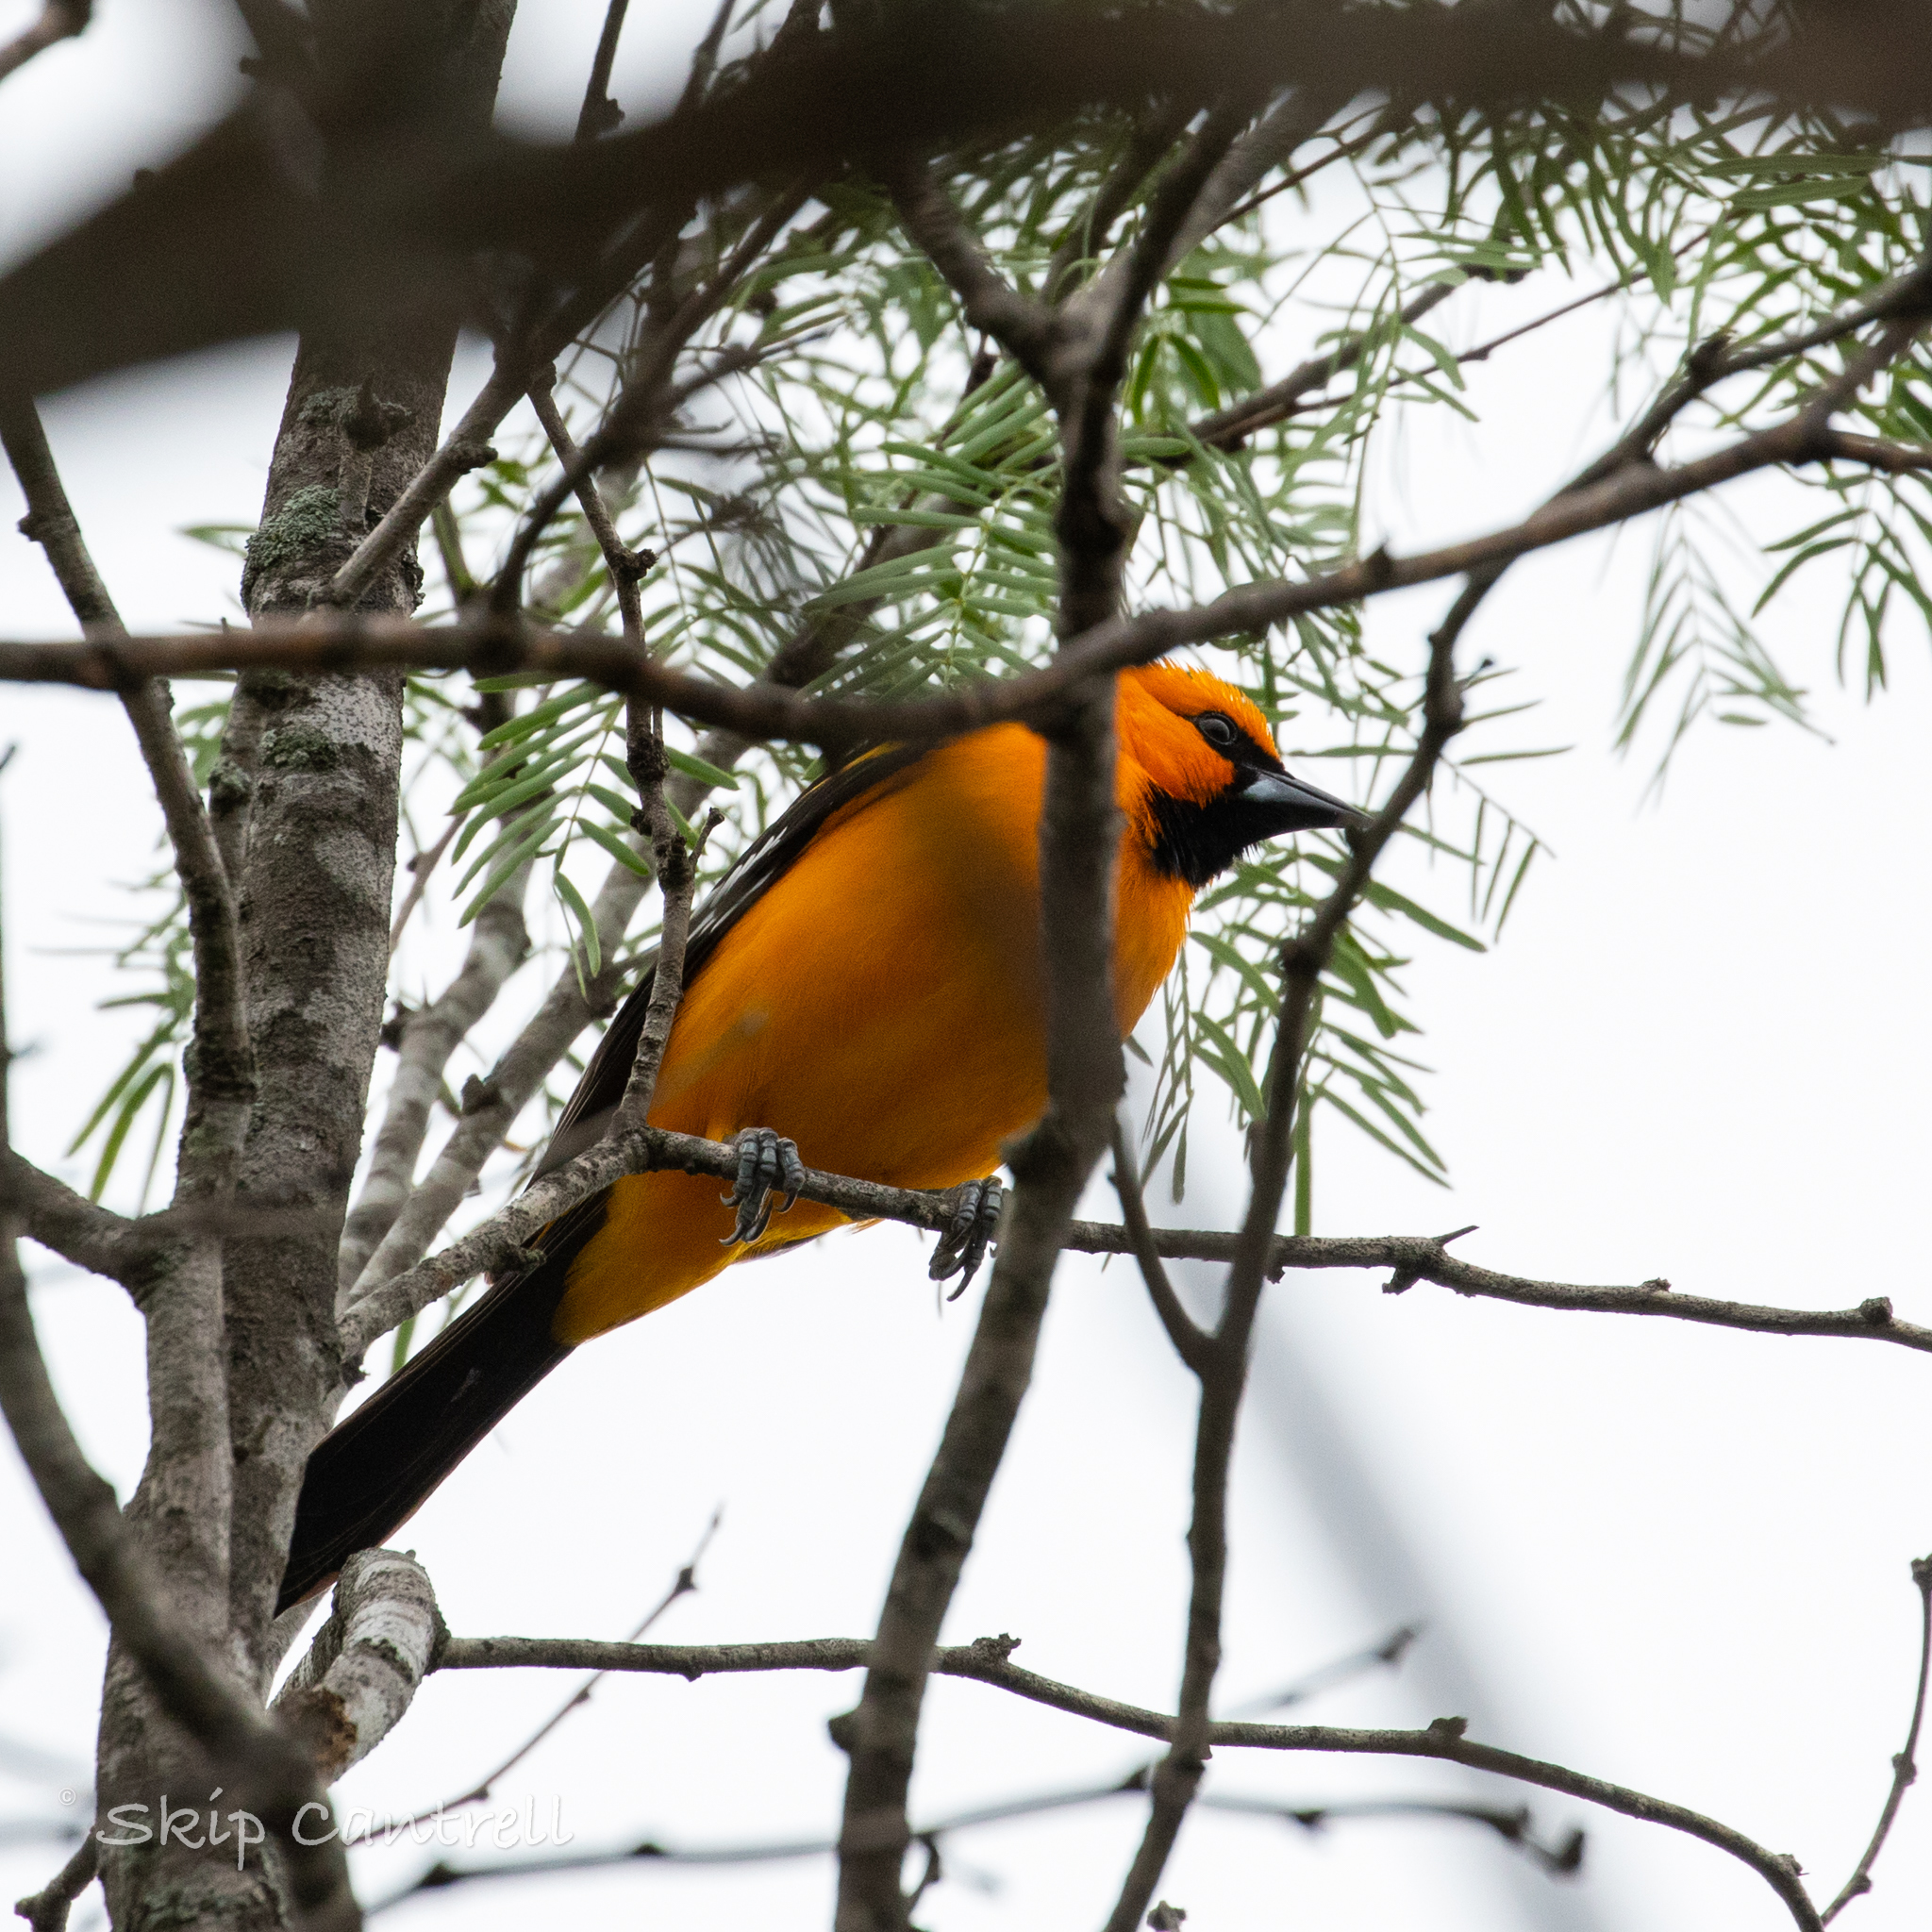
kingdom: Animalia
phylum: Chordata
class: Aves
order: Passeriformes
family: Icteridae
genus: Icterus
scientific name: Icterus gularis
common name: Altamira oriole
